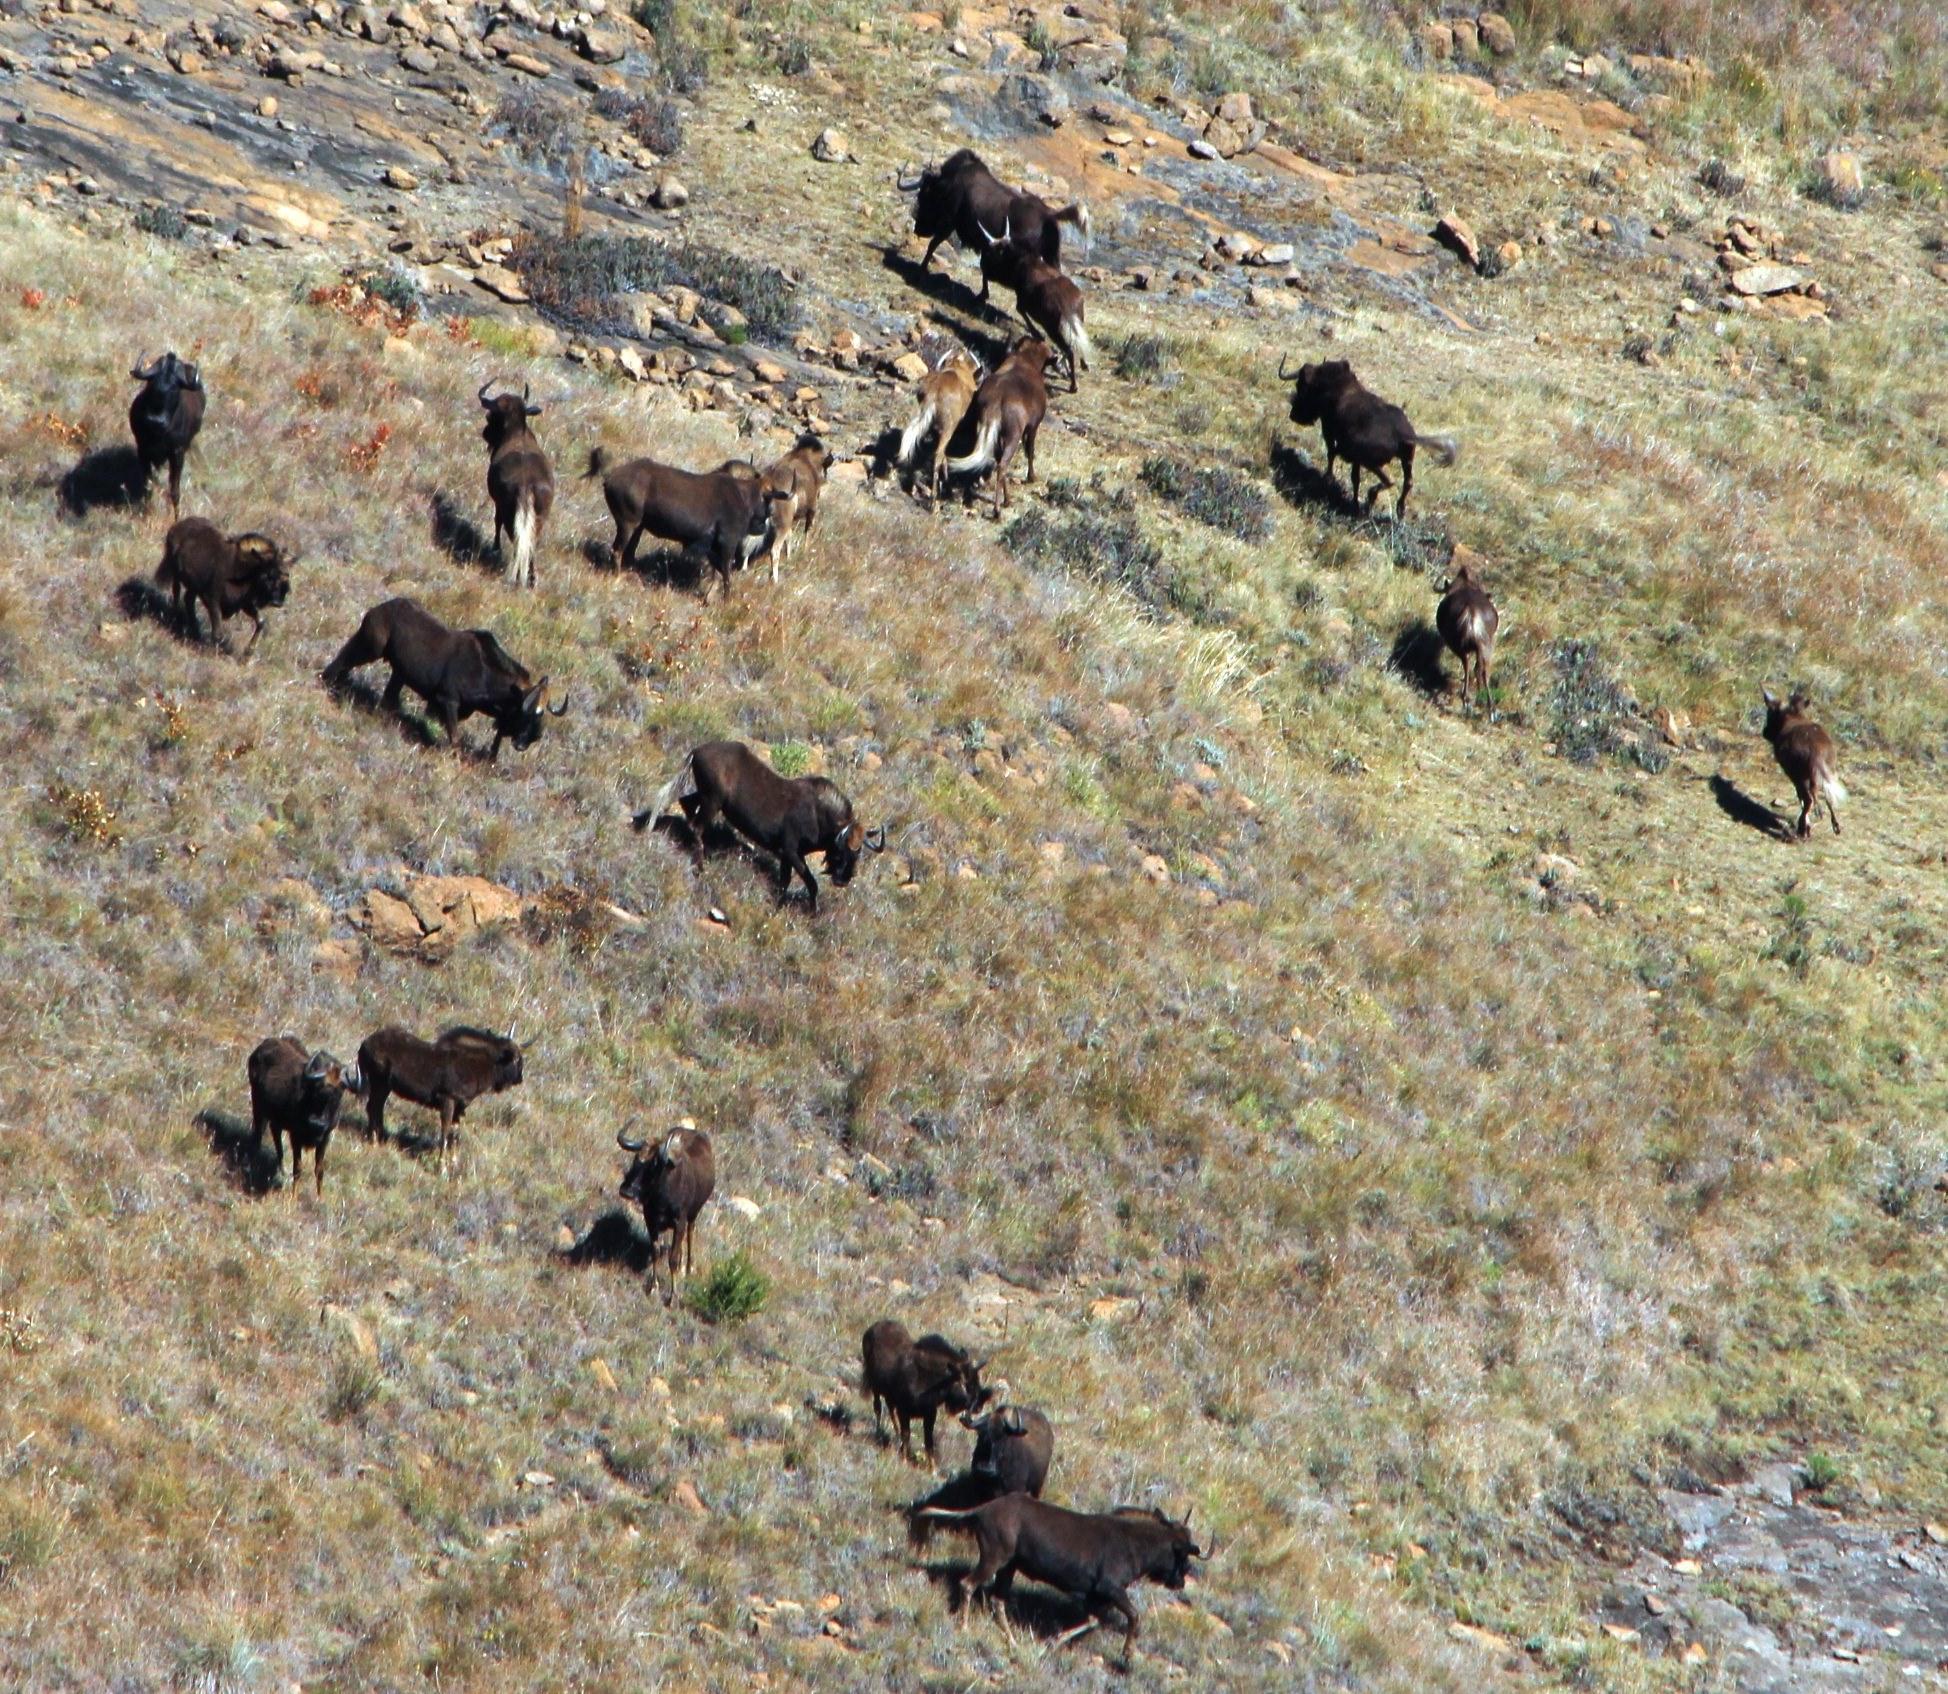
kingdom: Animalia
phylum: Chordata
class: Mammalia
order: Artiodactyla
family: Bovidae
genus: Connochaetes
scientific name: Connochaetes gnou
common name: Black wildebeest
